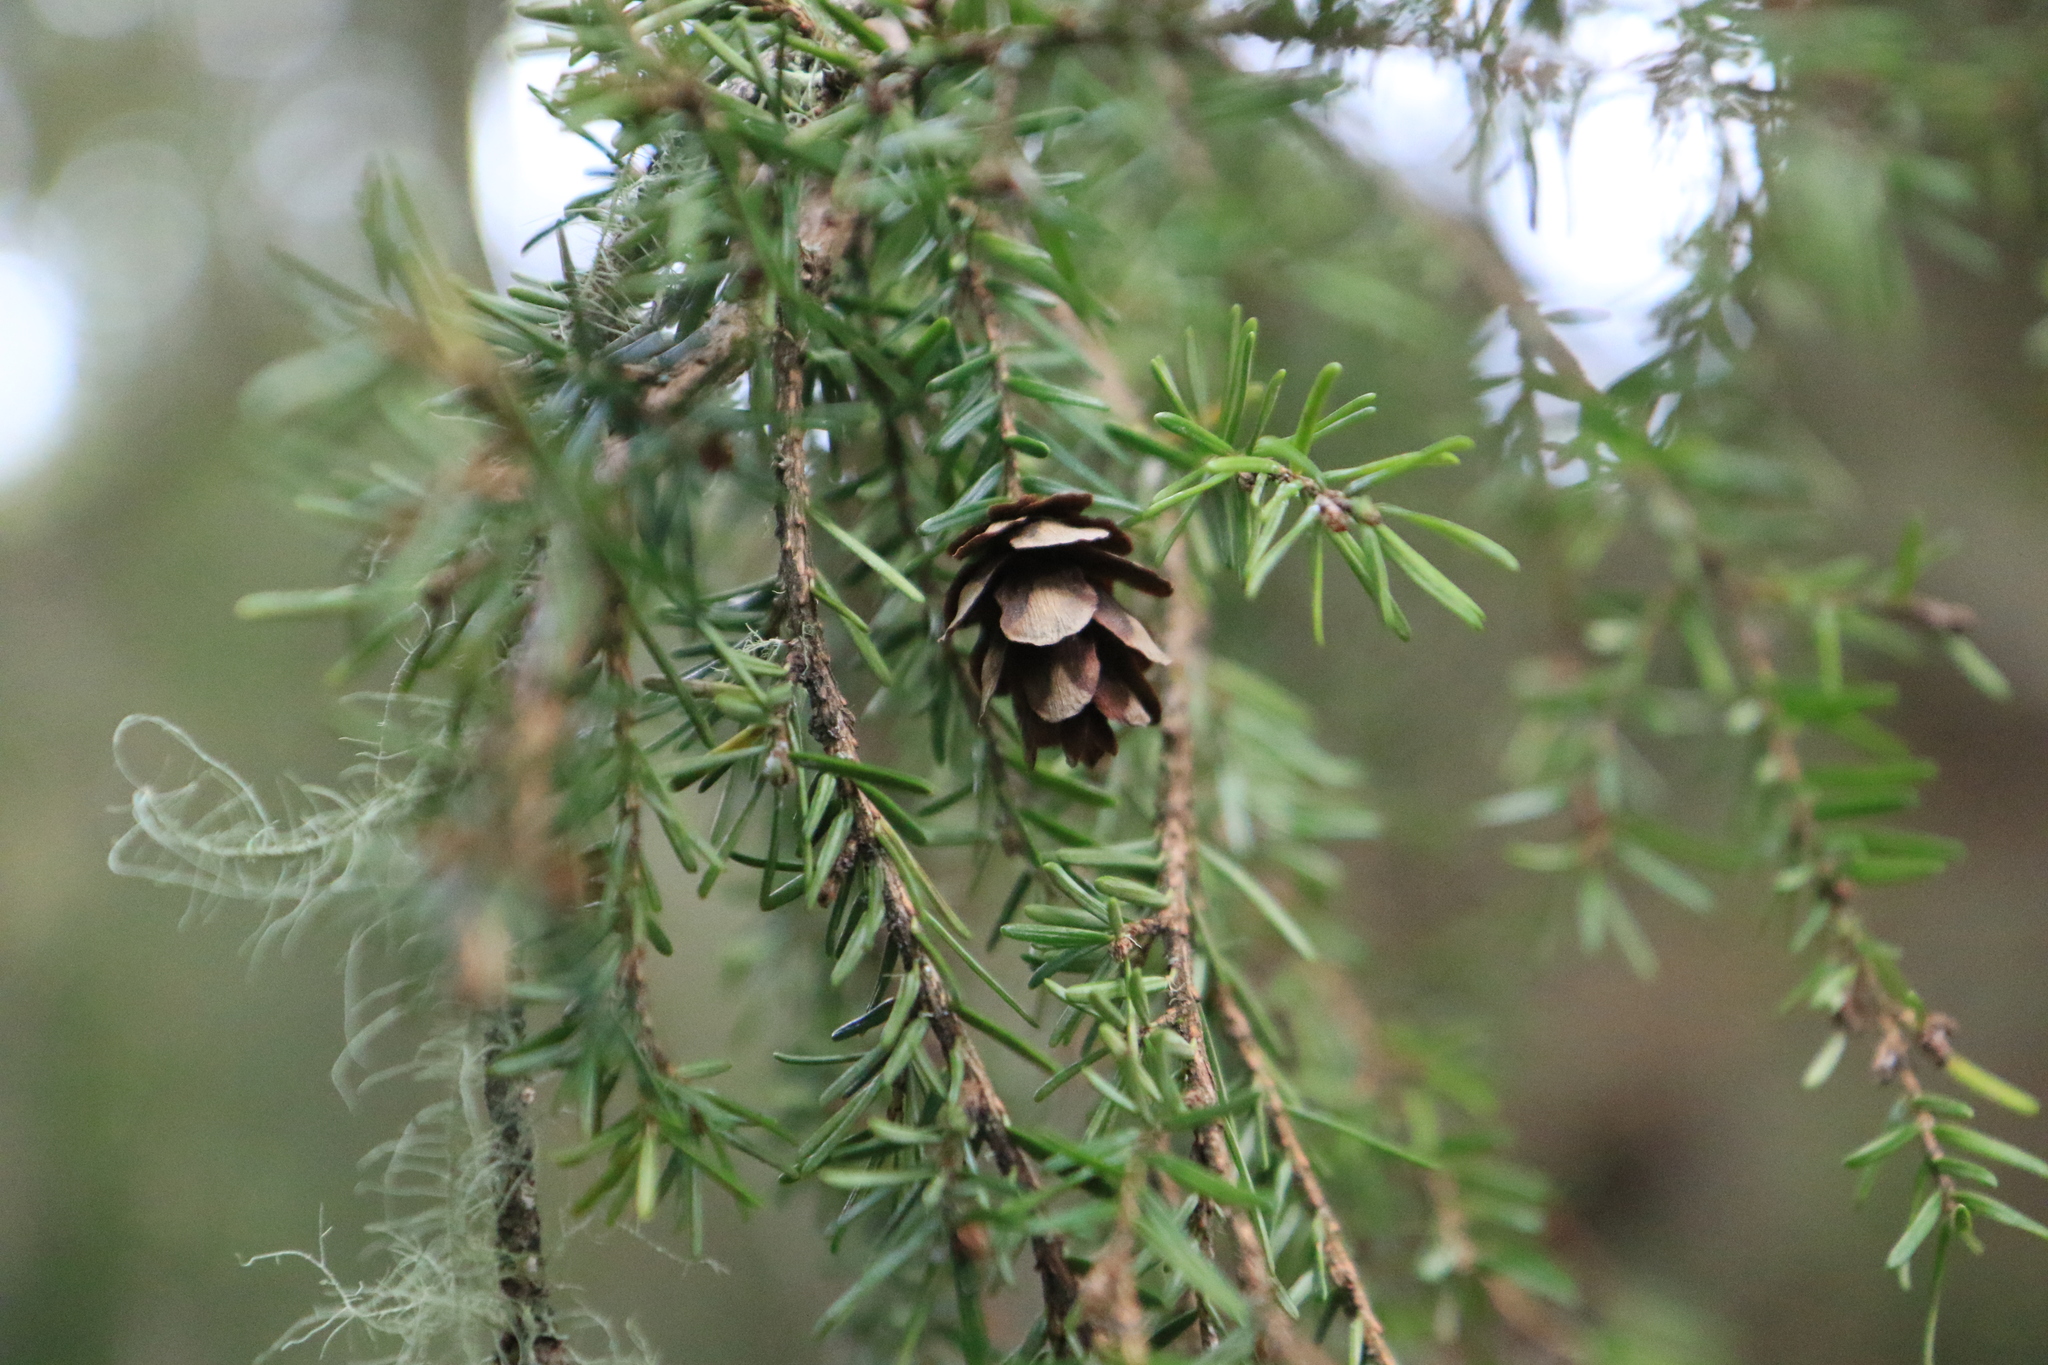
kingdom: Plantae
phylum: Tracheophyta
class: Pinopsida
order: Pinales
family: Pinaceae
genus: Tsuga
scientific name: Tsuga heterophylla
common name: Western hemlock
